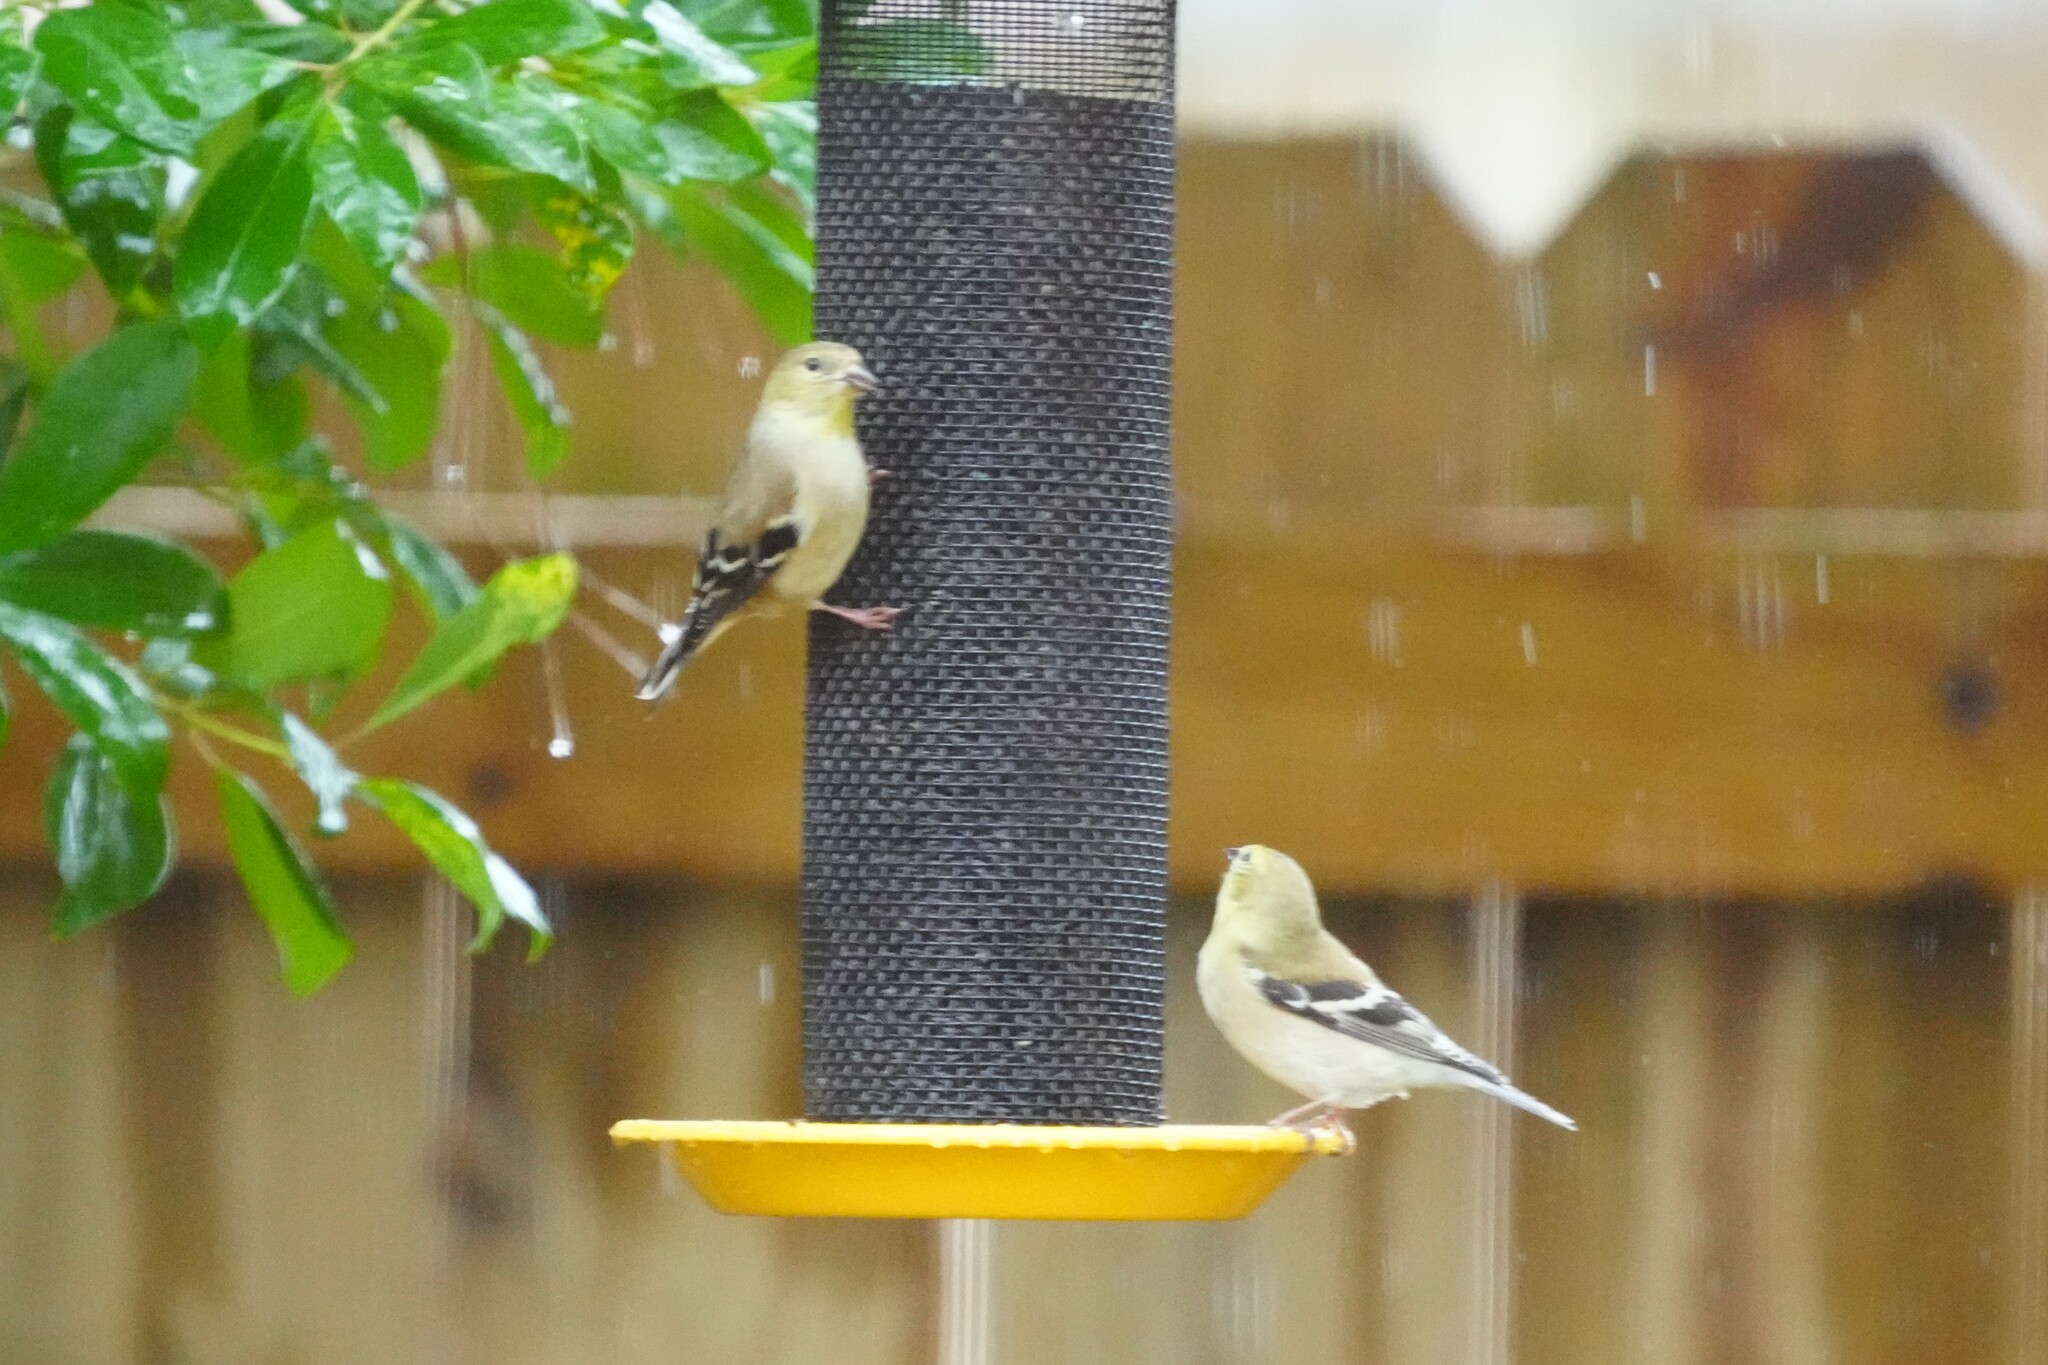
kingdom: Animalia
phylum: Chordata
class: Aves
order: Passeriformes
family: Fringillidae
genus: Spinus
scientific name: Spinus tristis
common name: American goldfinch
